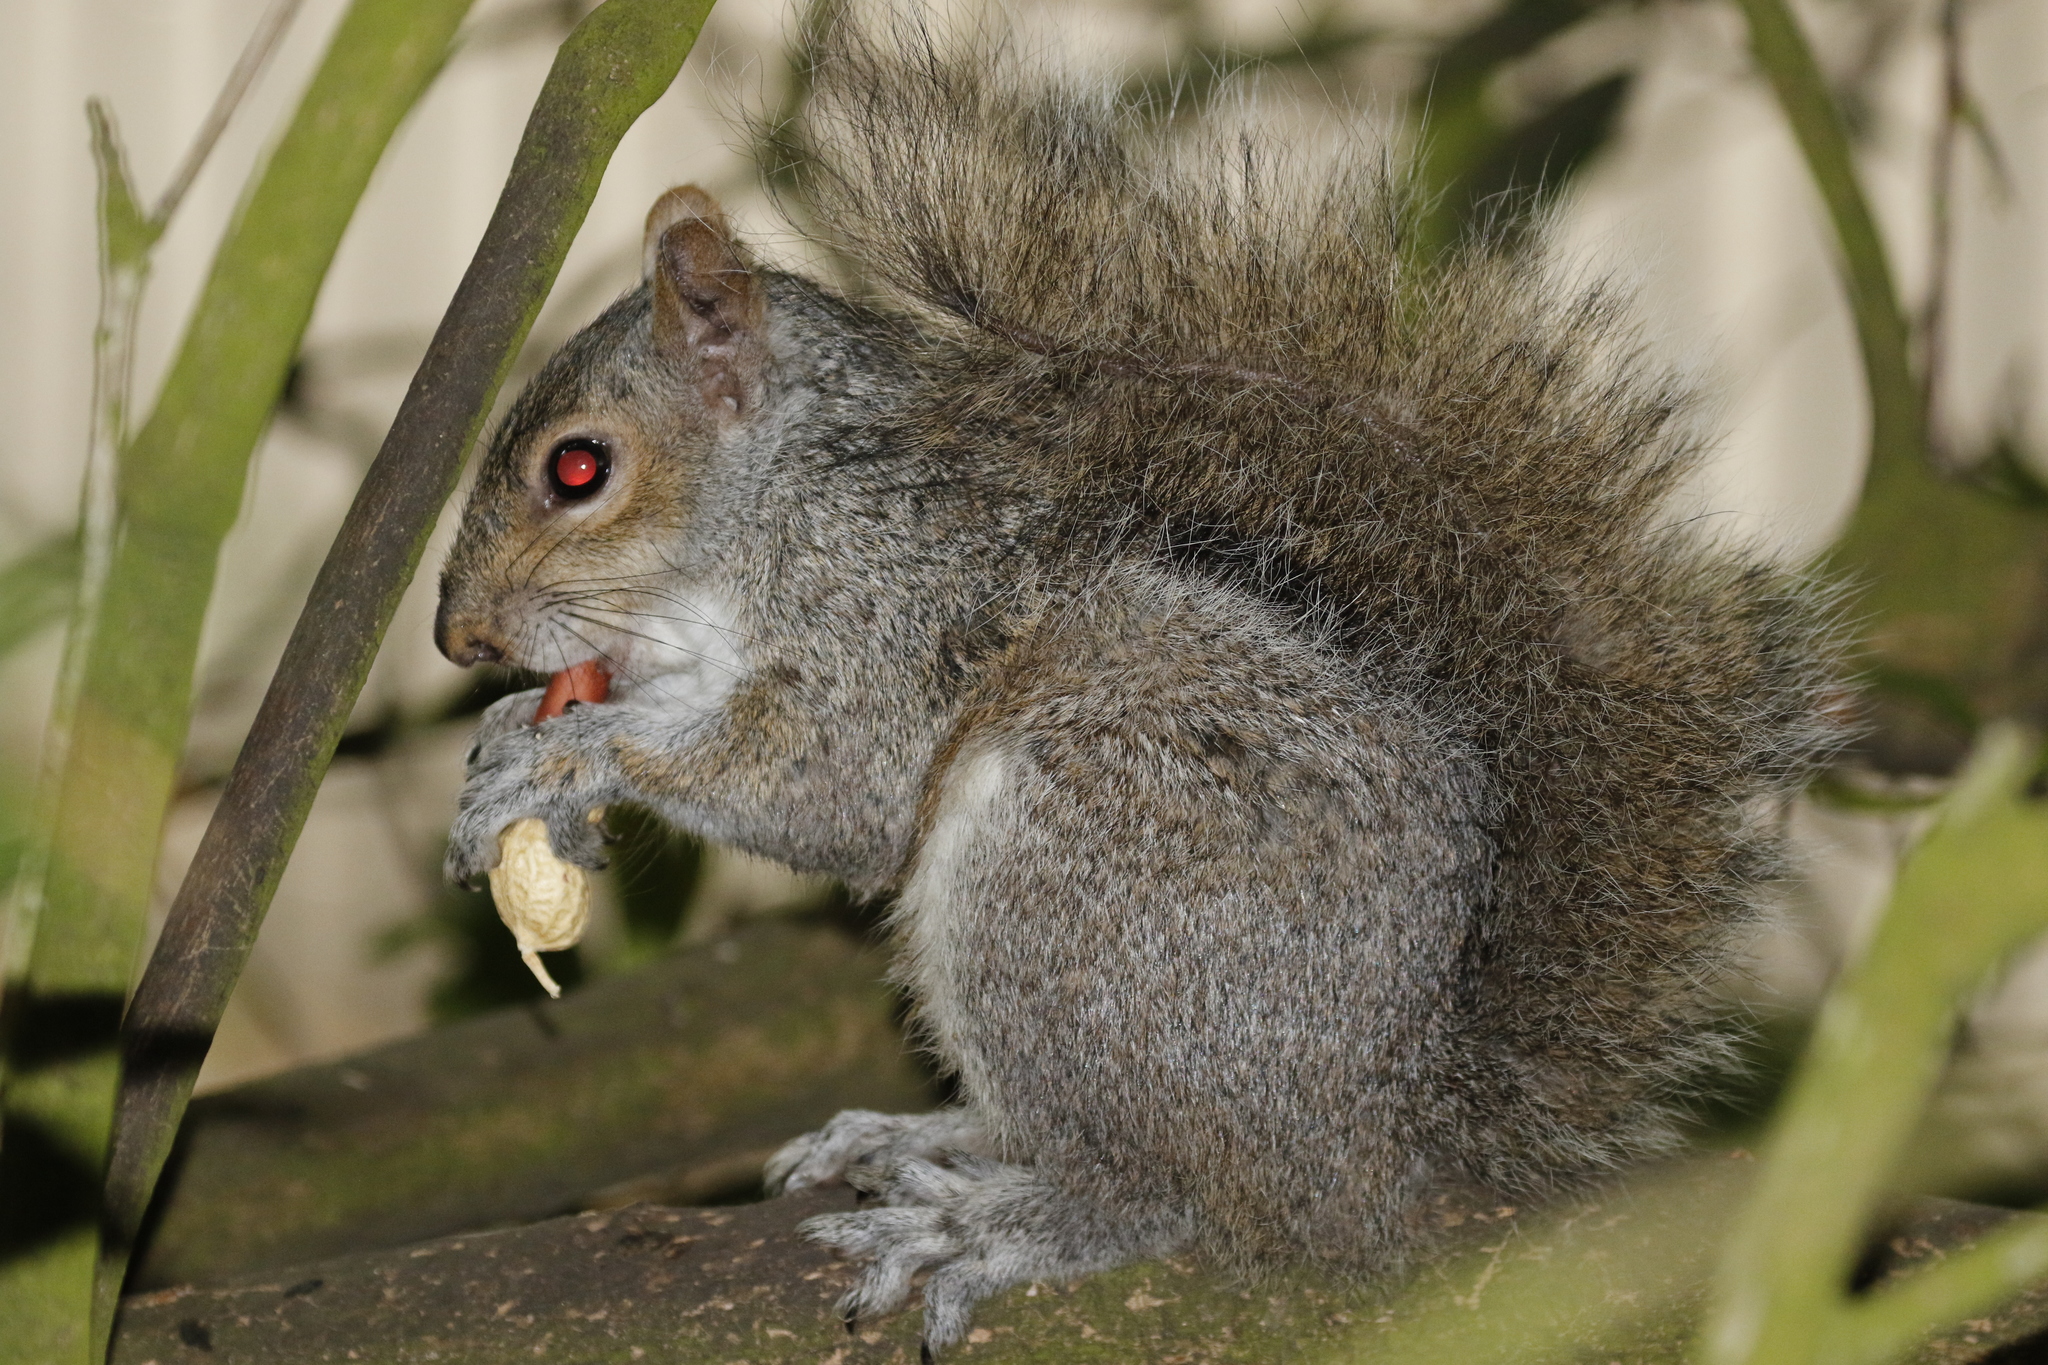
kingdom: Animalia
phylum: Chordata
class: Mammalia
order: Rodentia
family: Sciuridae
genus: Sciurus
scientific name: Sciurus carolinensis
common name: Eastern gray squirrel
